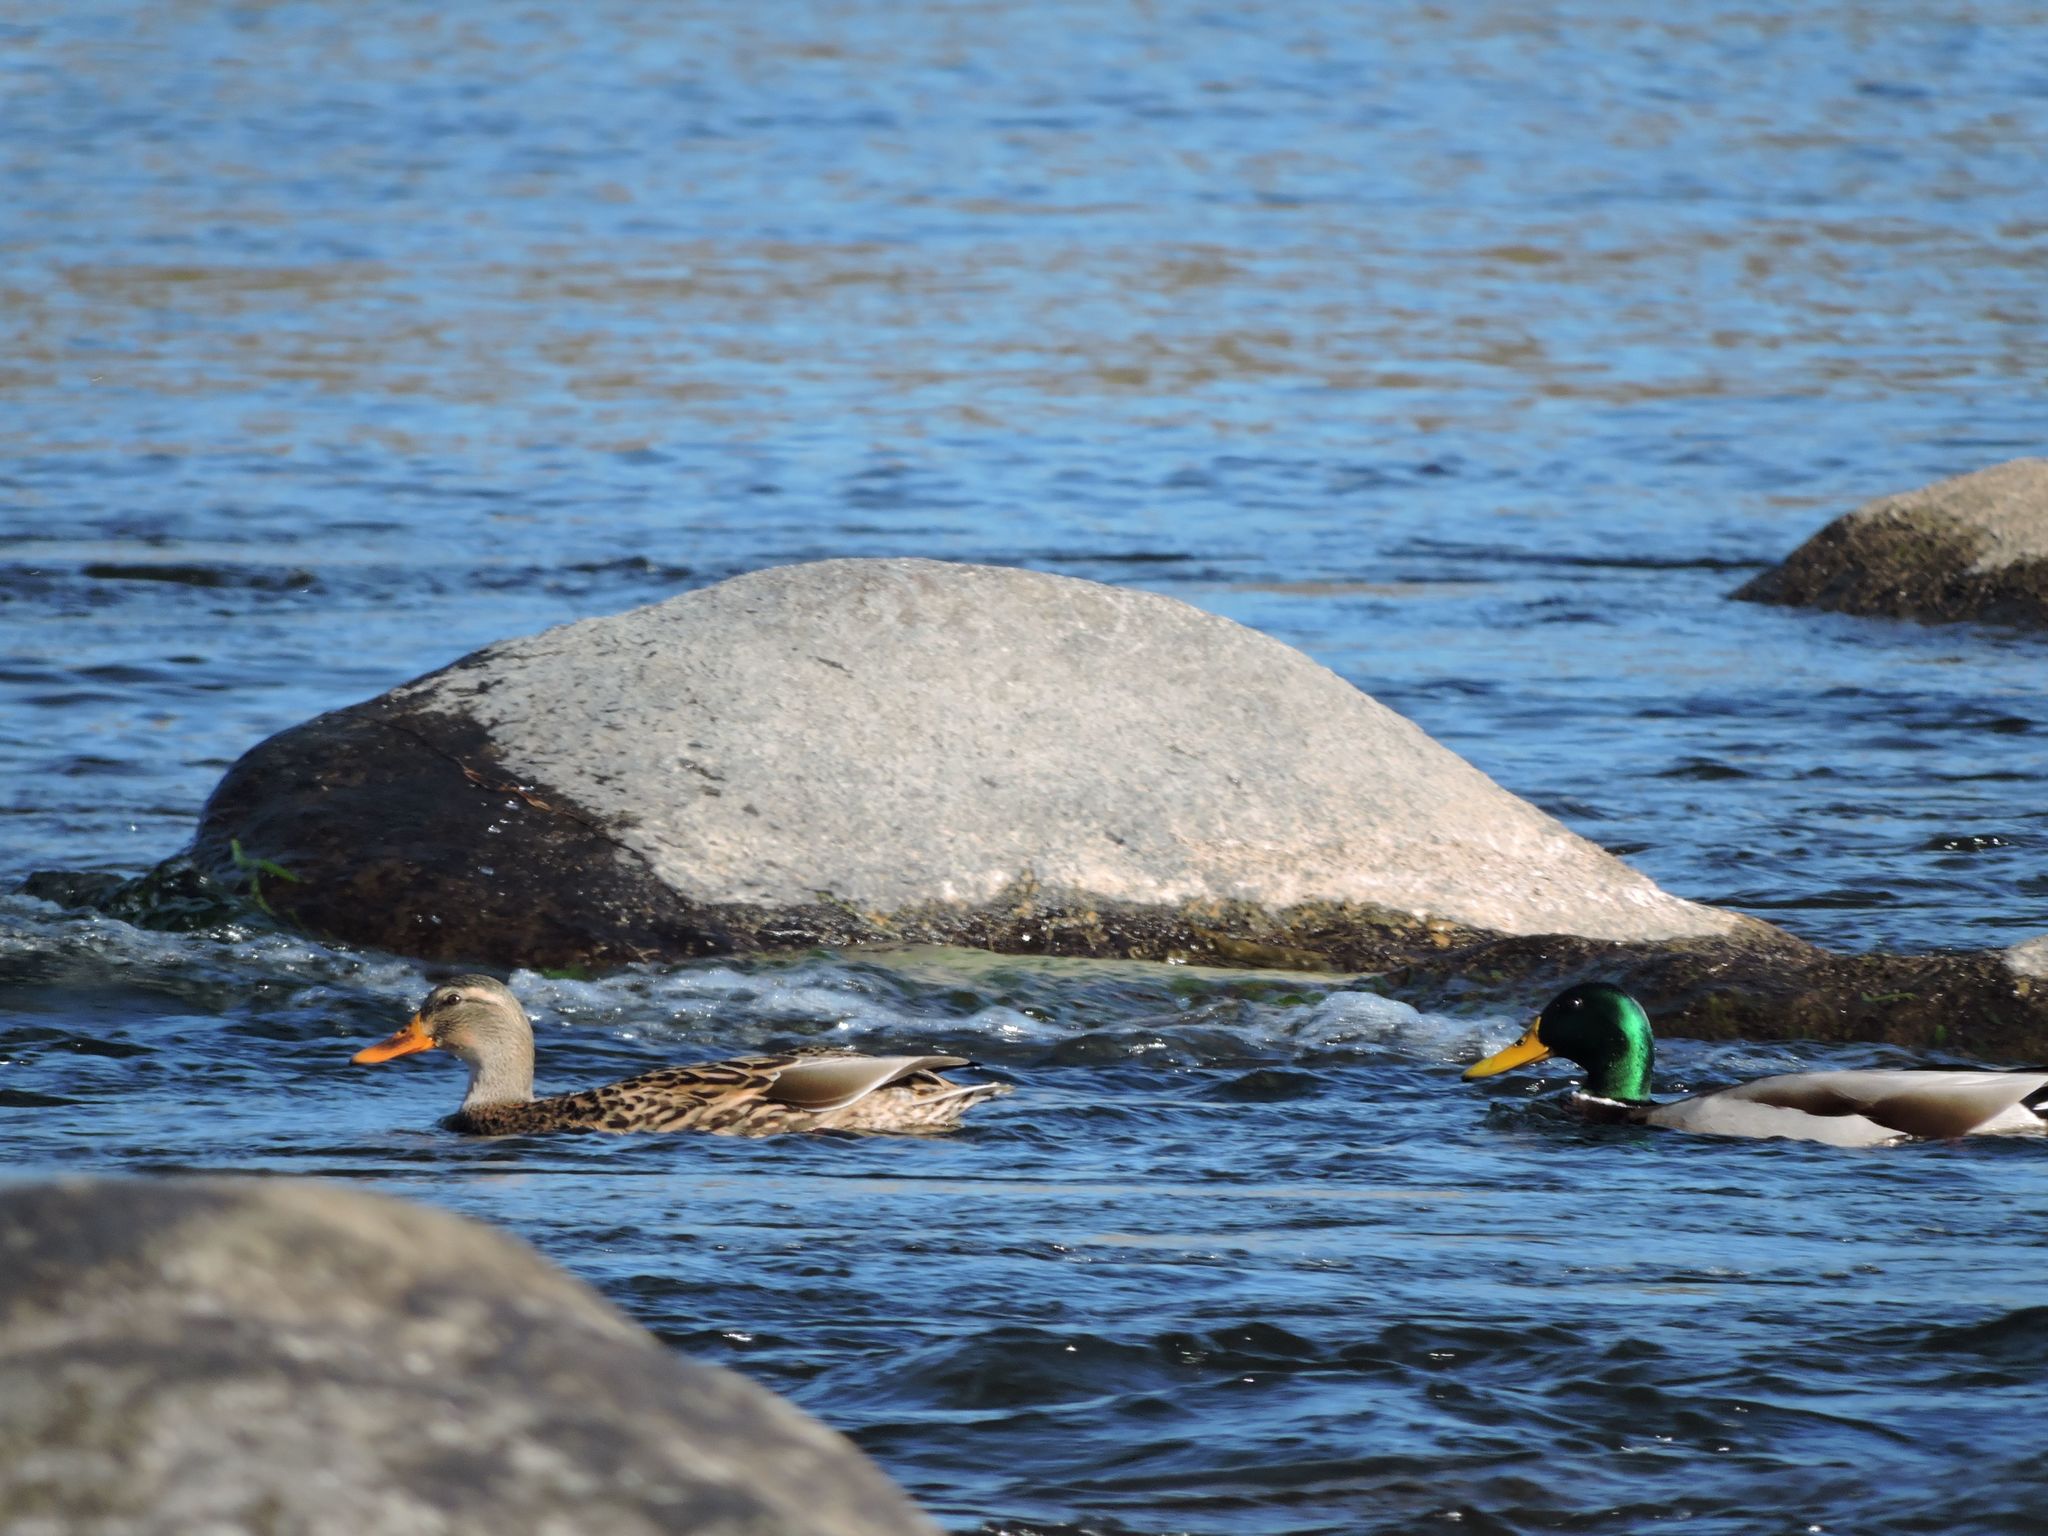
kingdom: Animalia
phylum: Chordata
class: Aves
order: Anseriformes
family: Anatidae
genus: Anas
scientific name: Anas platyrhynchos
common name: Mallard
